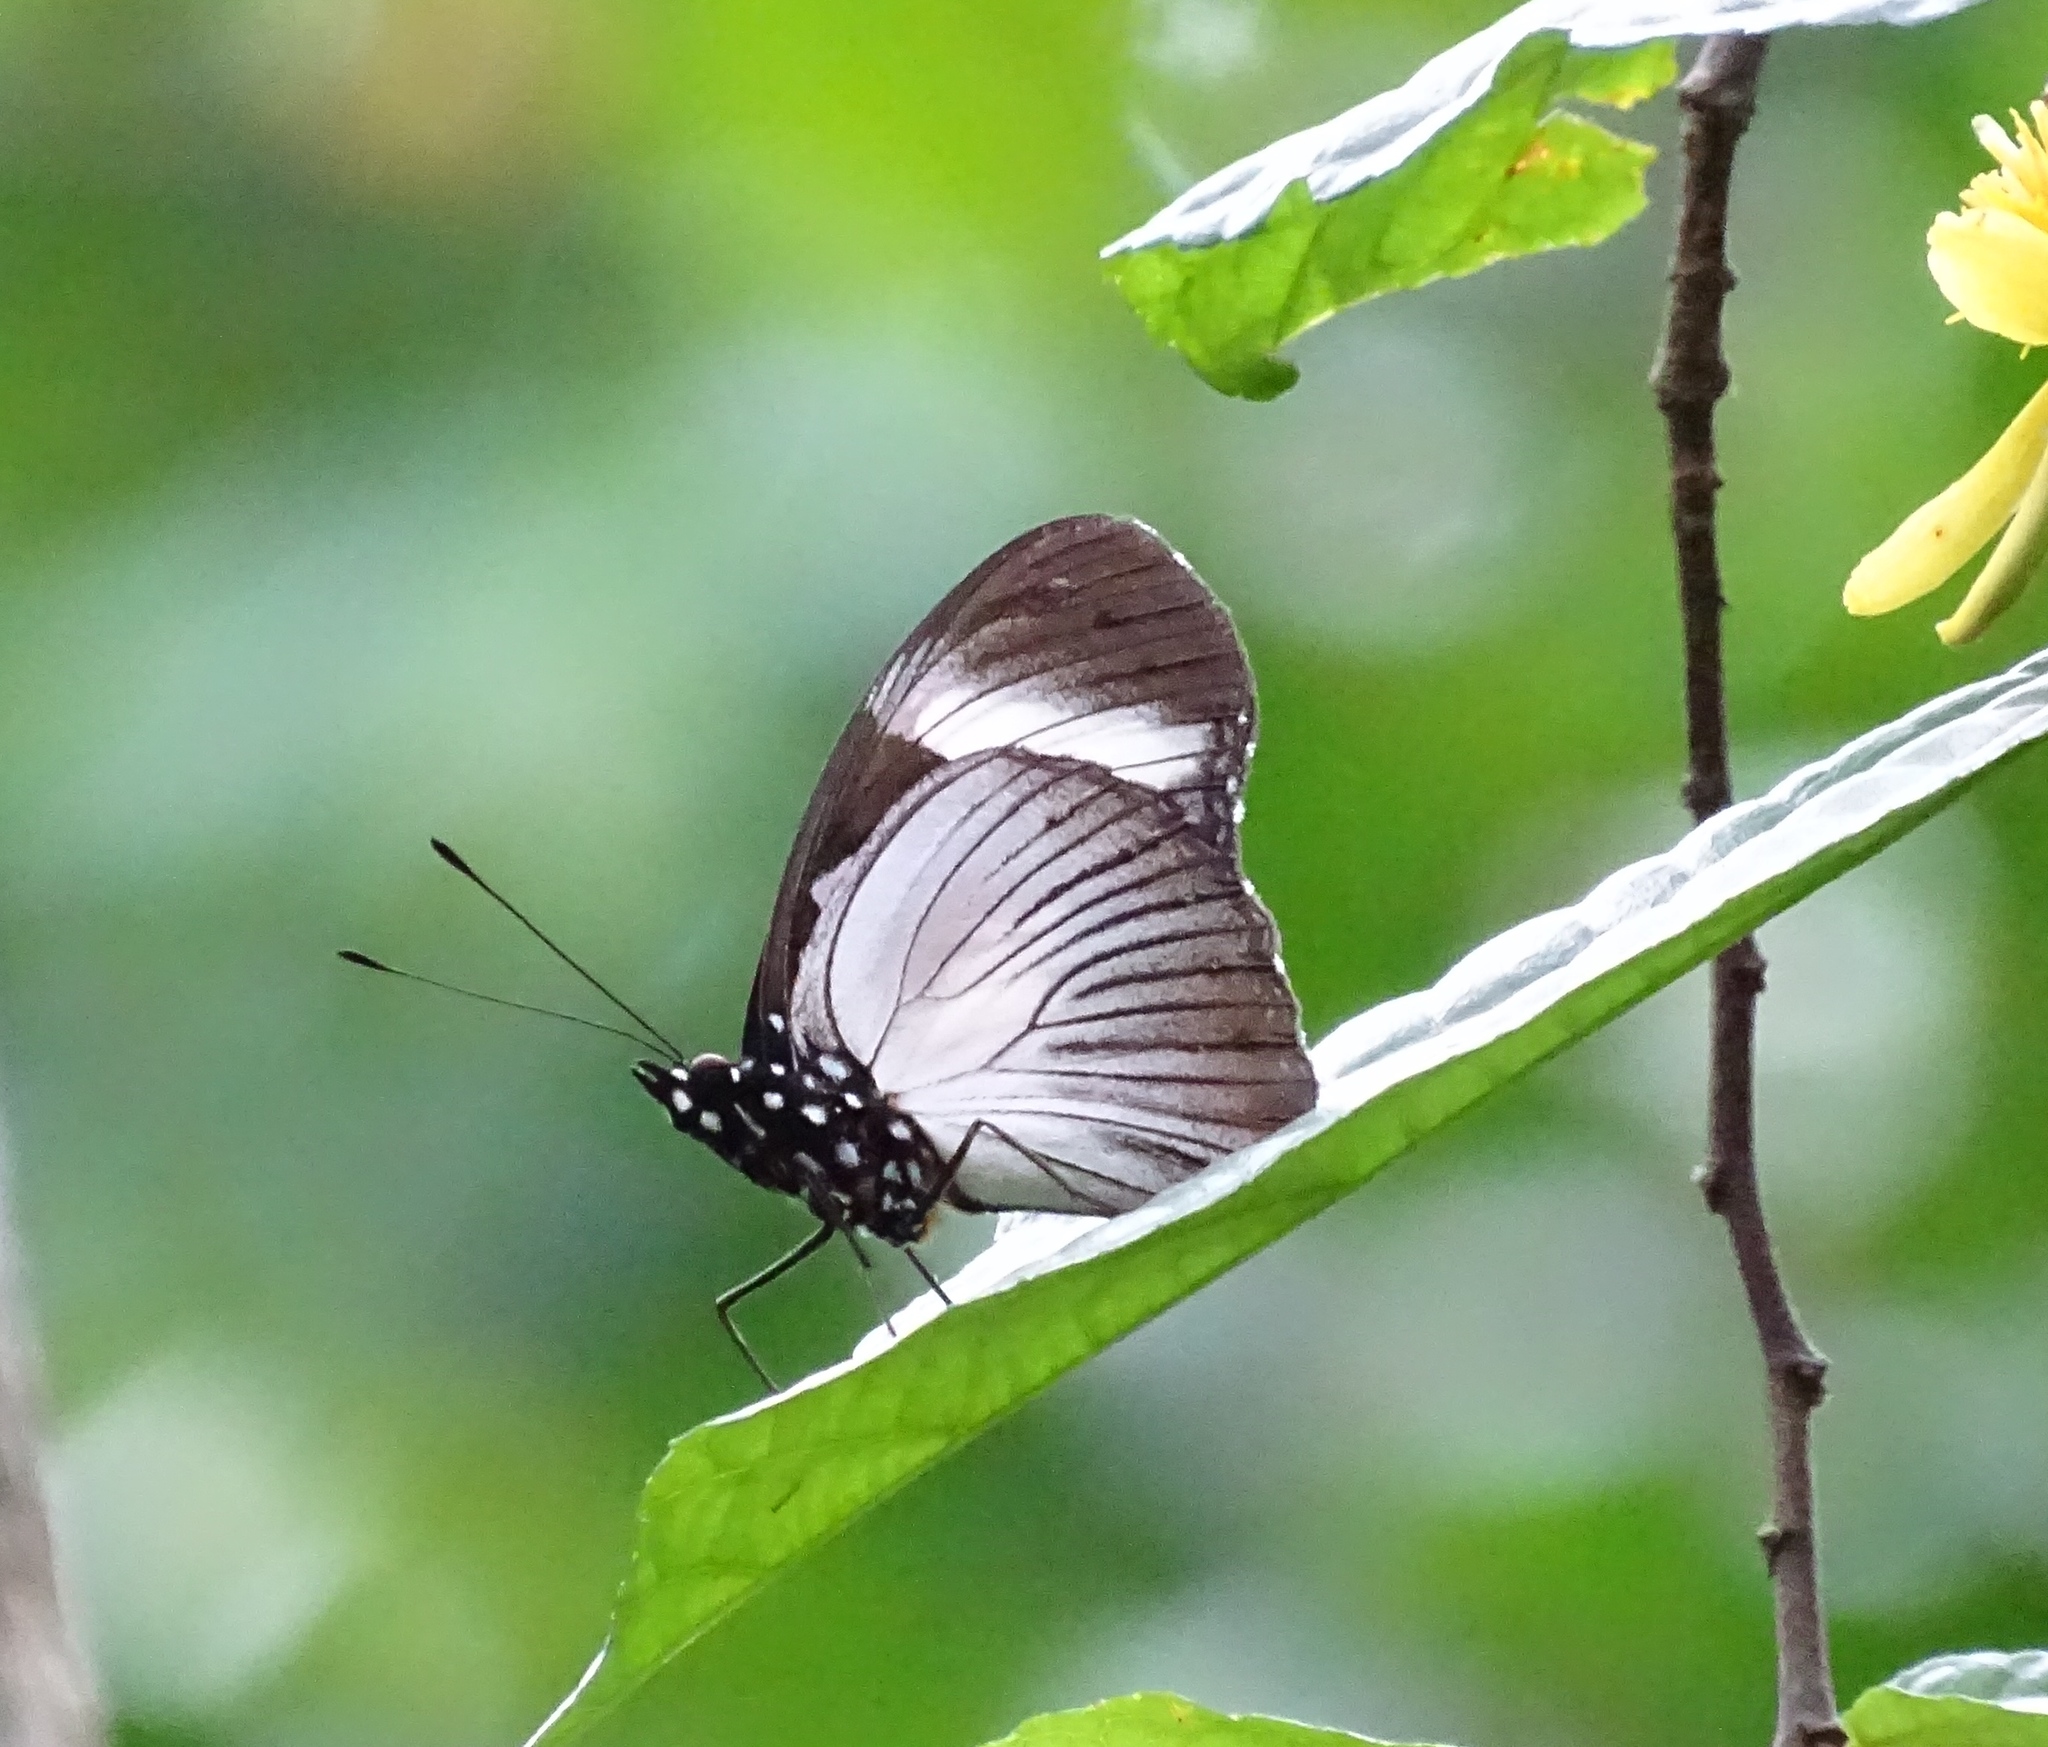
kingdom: Animalia
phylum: Arthropoda
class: Insecta
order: Lepidoptera
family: Nymphalidae
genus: Hypolimnas
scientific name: Hypolimnas dubius
